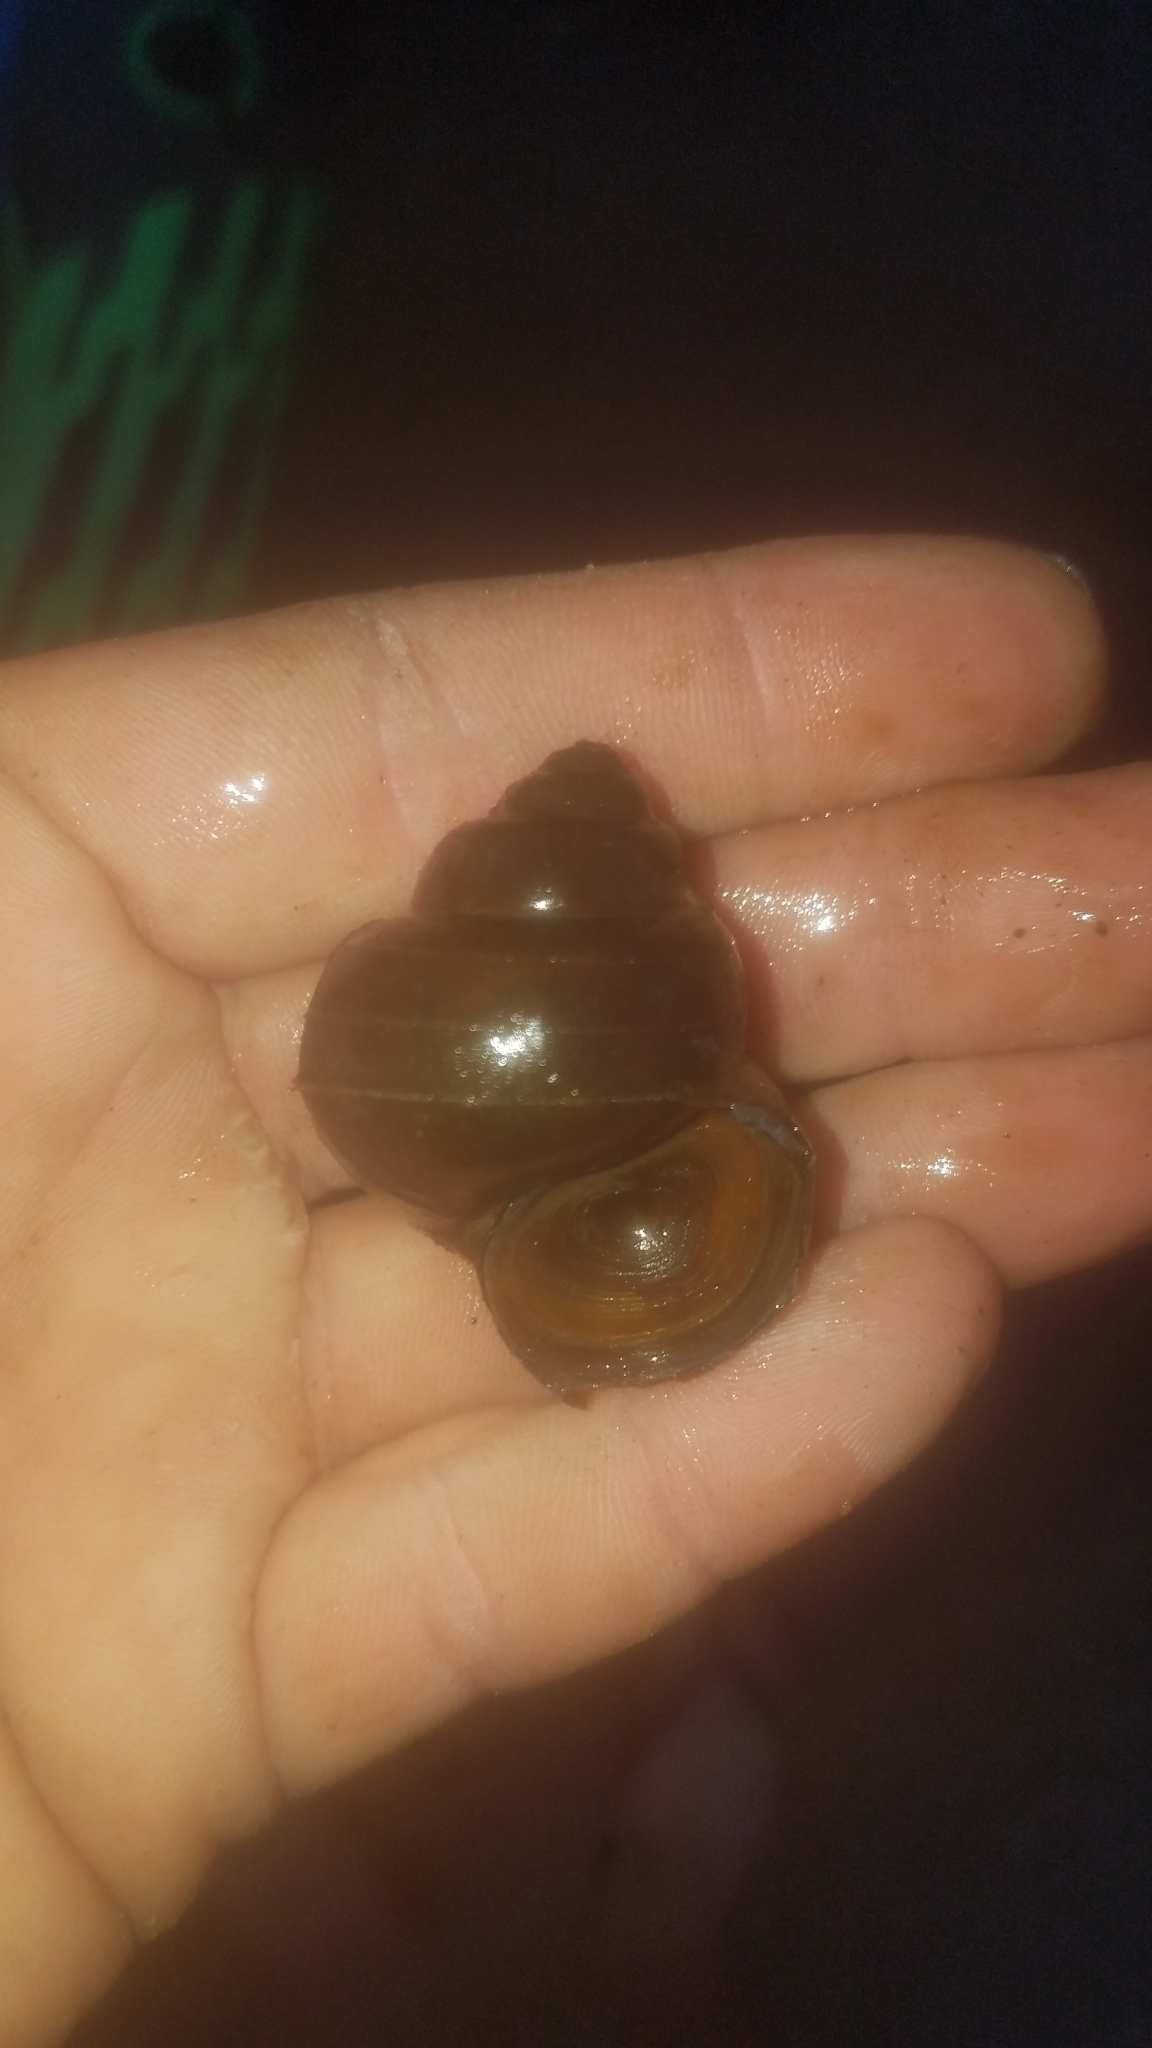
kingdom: Animalia
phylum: Mollusca
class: Gastropoda
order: Architaenioglossa
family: Viviparidae
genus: Cipangopaludina
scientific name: Cipangopaludina chinensis
